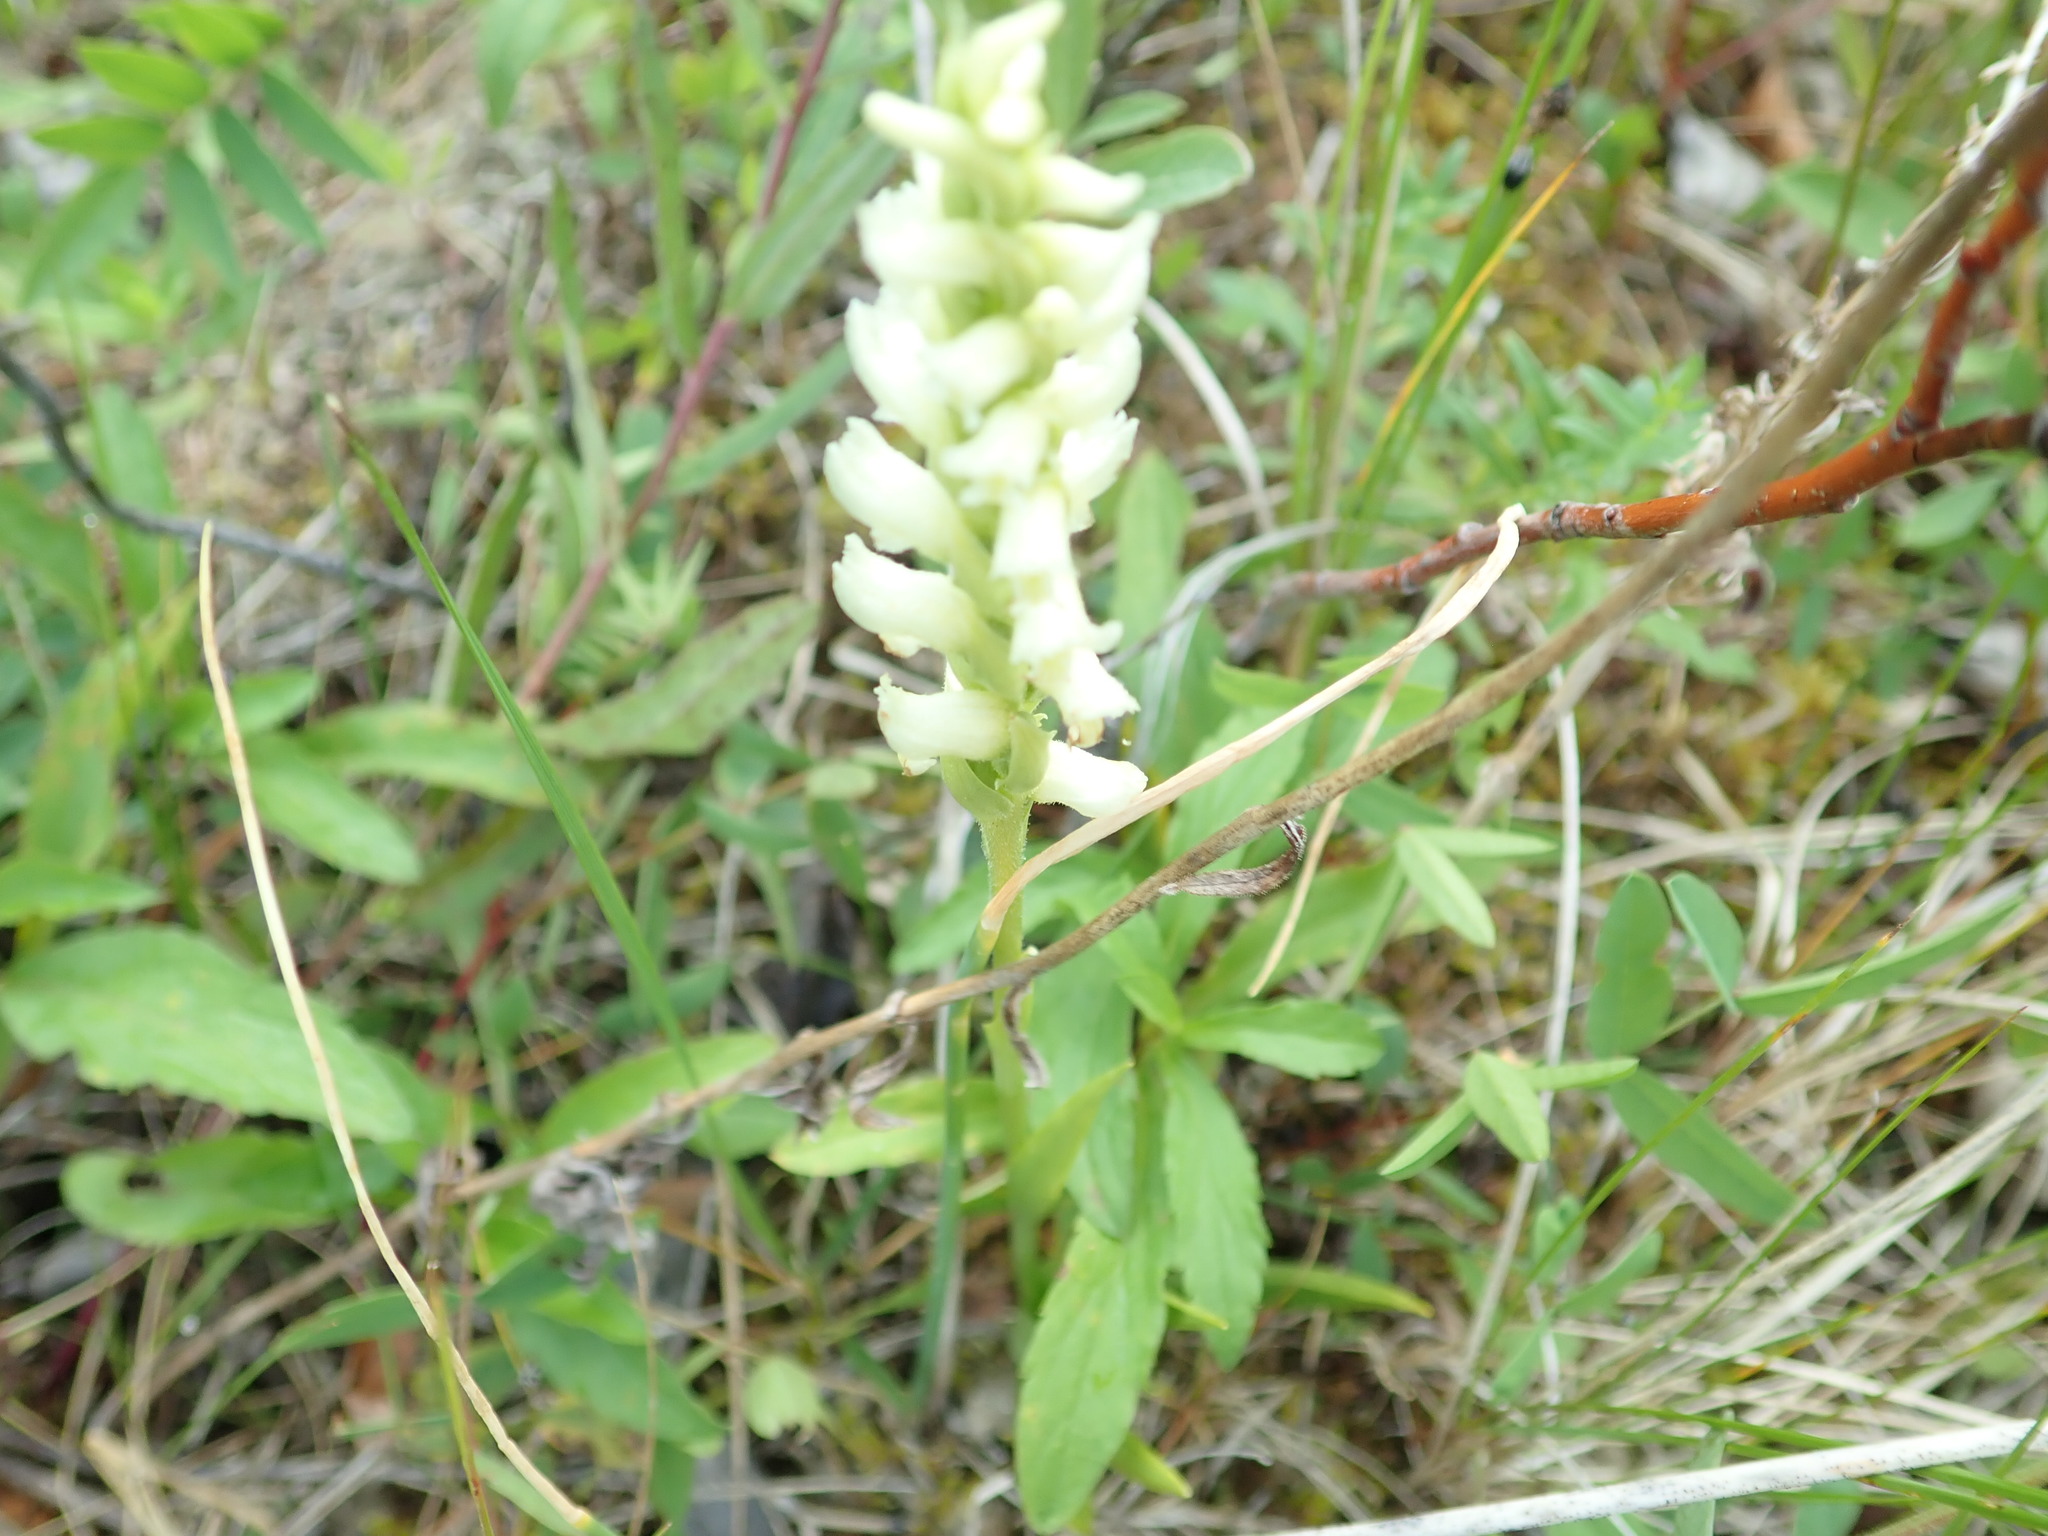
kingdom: Plantae
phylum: Tracheophyta
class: Liliopsida
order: Asparagales
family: Orchidaceae
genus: Spiranthes
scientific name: Spiranthes romanzoffiana
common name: Irish lady's-tresses
